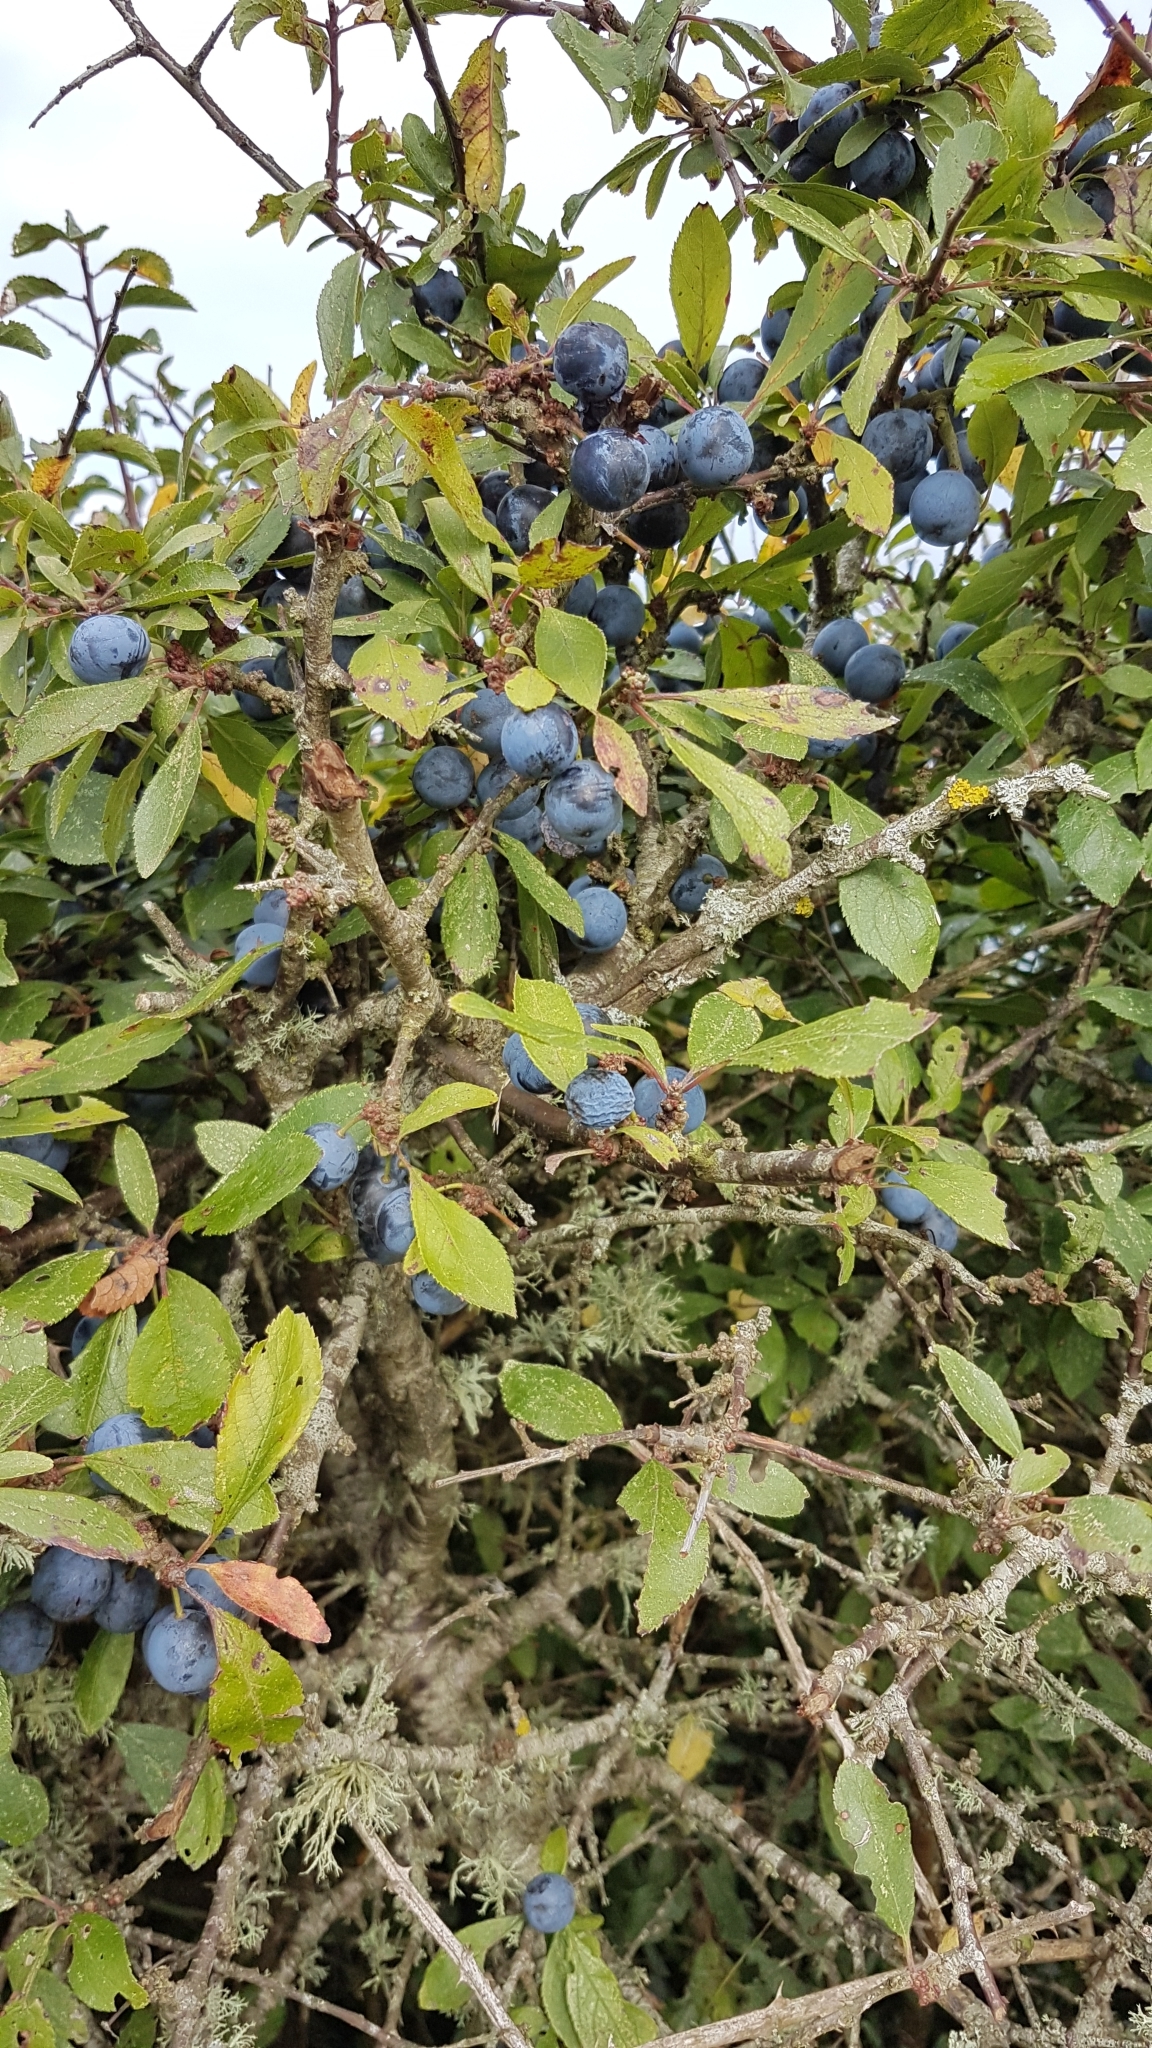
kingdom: Plantae
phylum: Tracheophyta
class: Magnoliopsida
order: Rosales
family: Rosaceae
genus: Prunus
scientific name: Prunus spinosa
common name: Blackthorn
